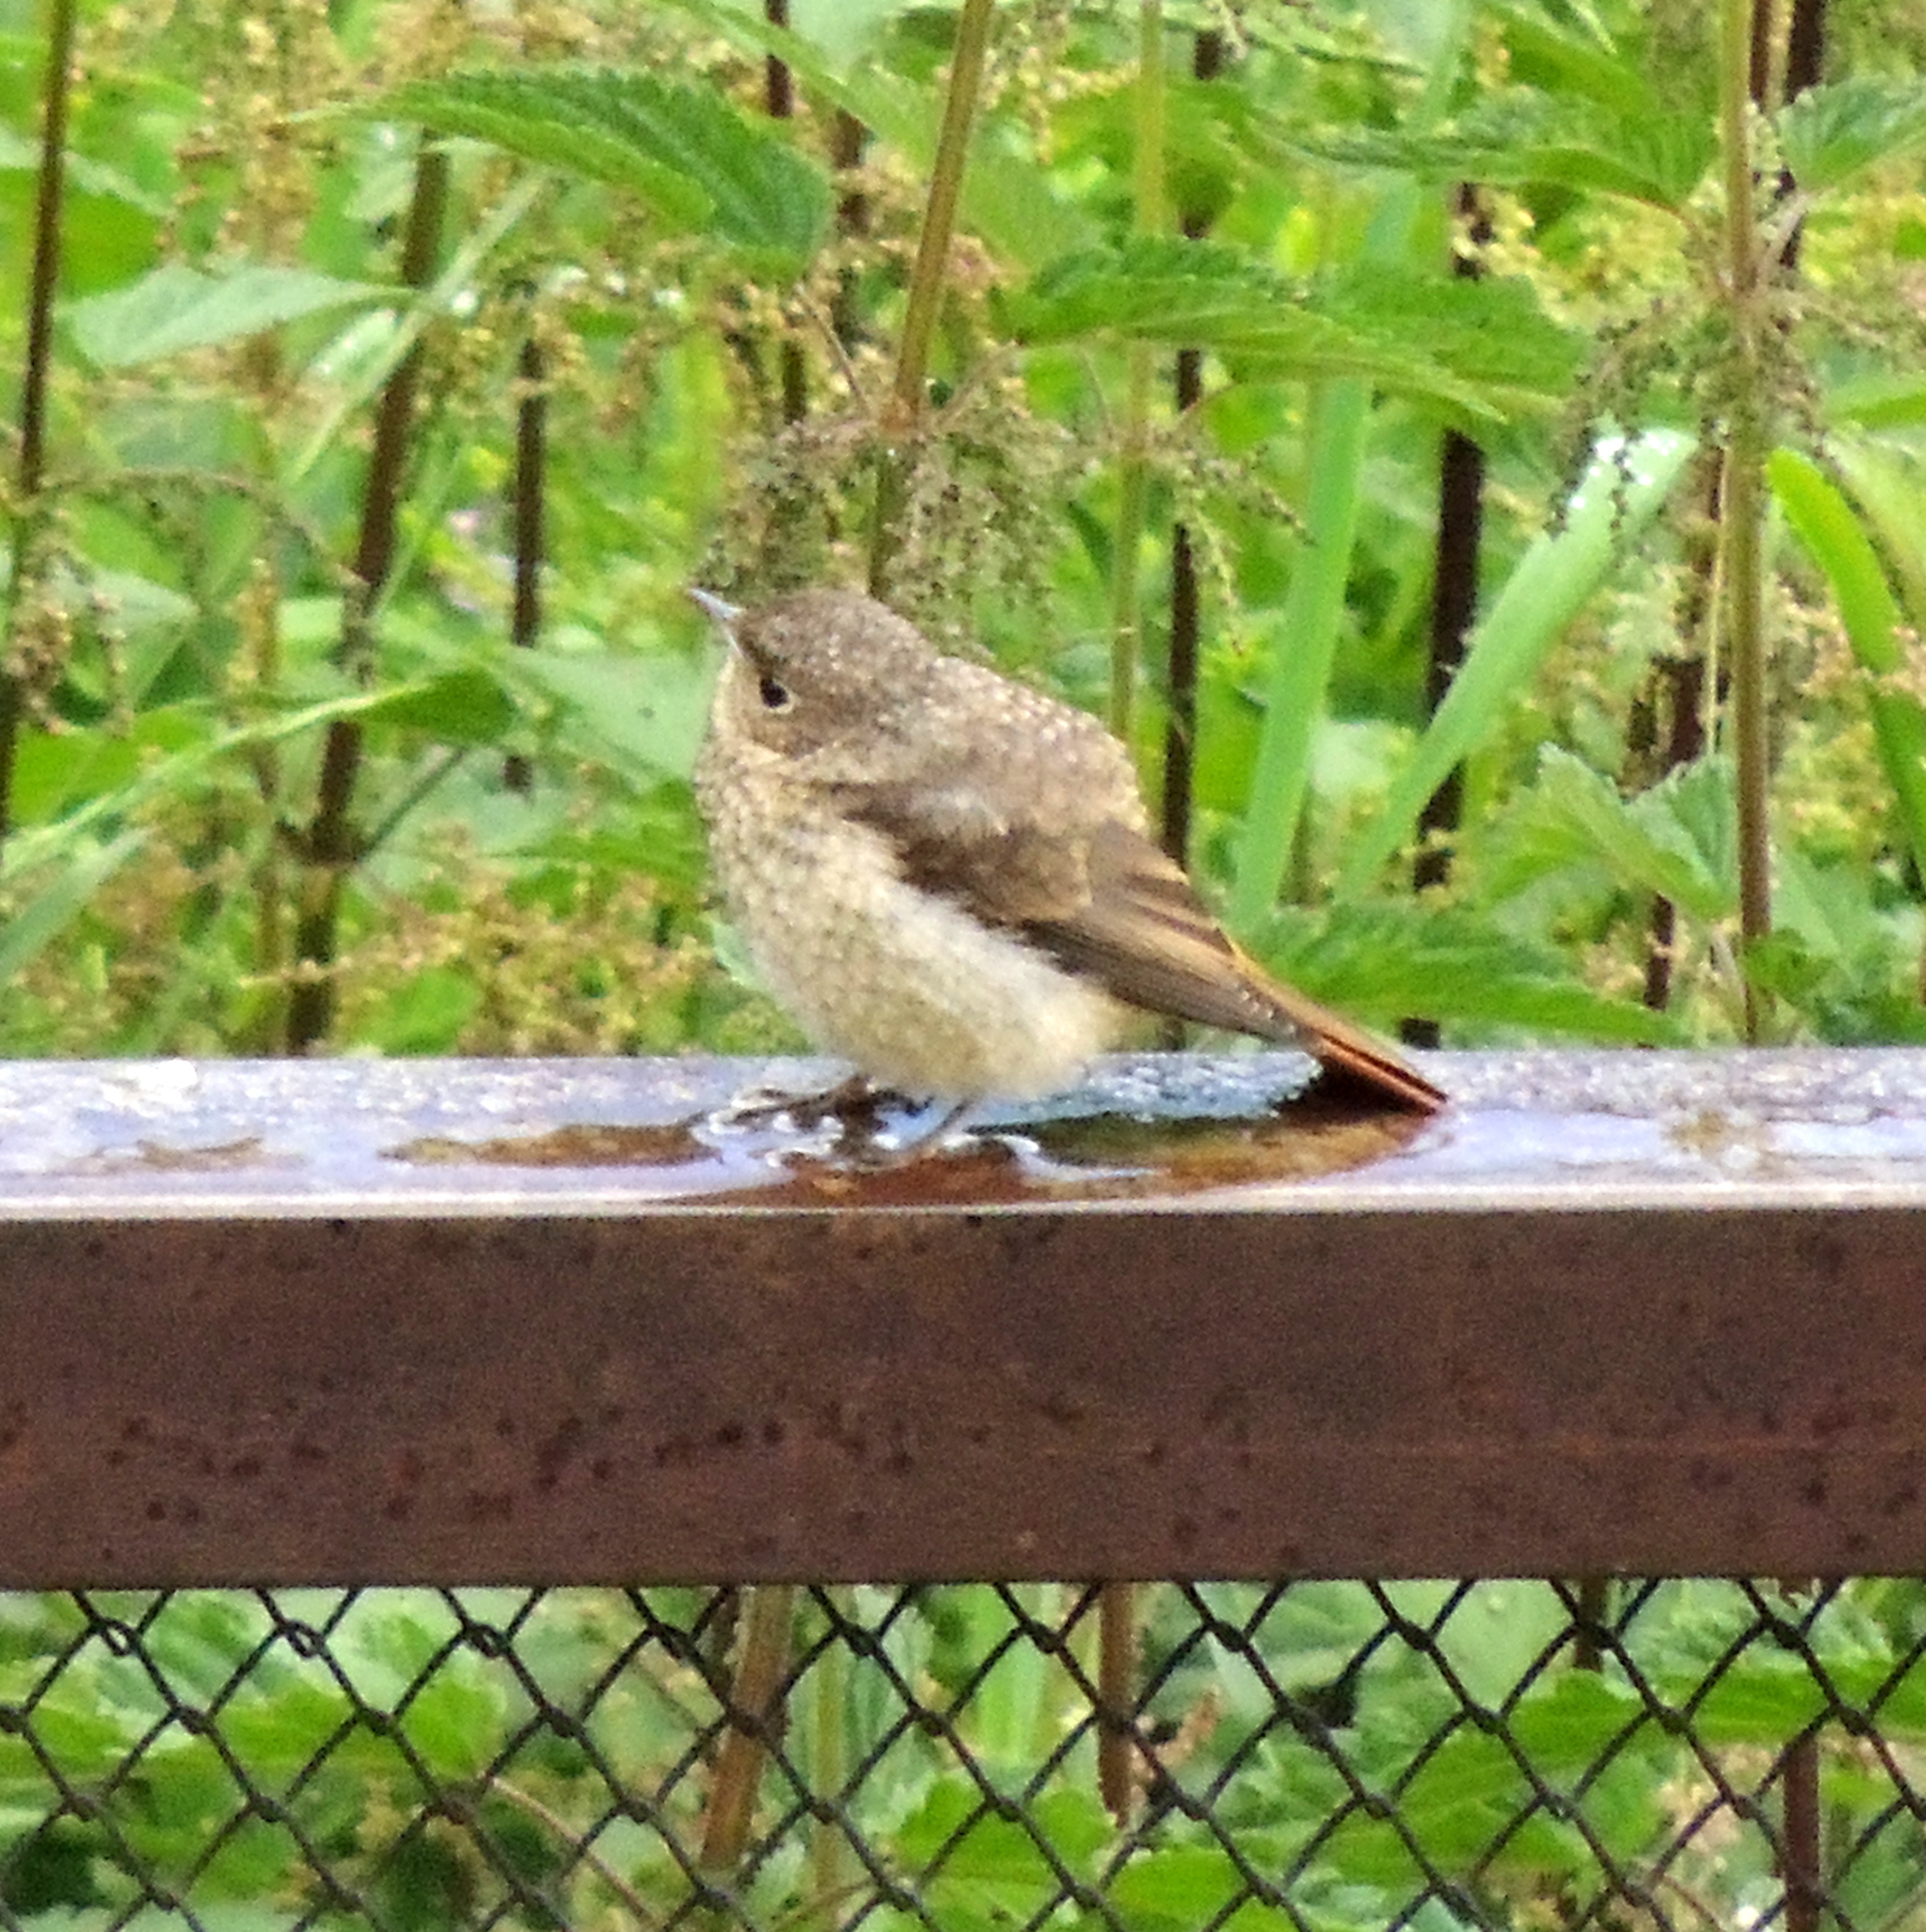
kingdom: Animalia
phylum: Chordata
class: Aves
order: Passeriformes
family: Muscicapidae
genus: Phoenicurus
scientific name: Phoenicurus phoenicurus
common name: Common redstart
